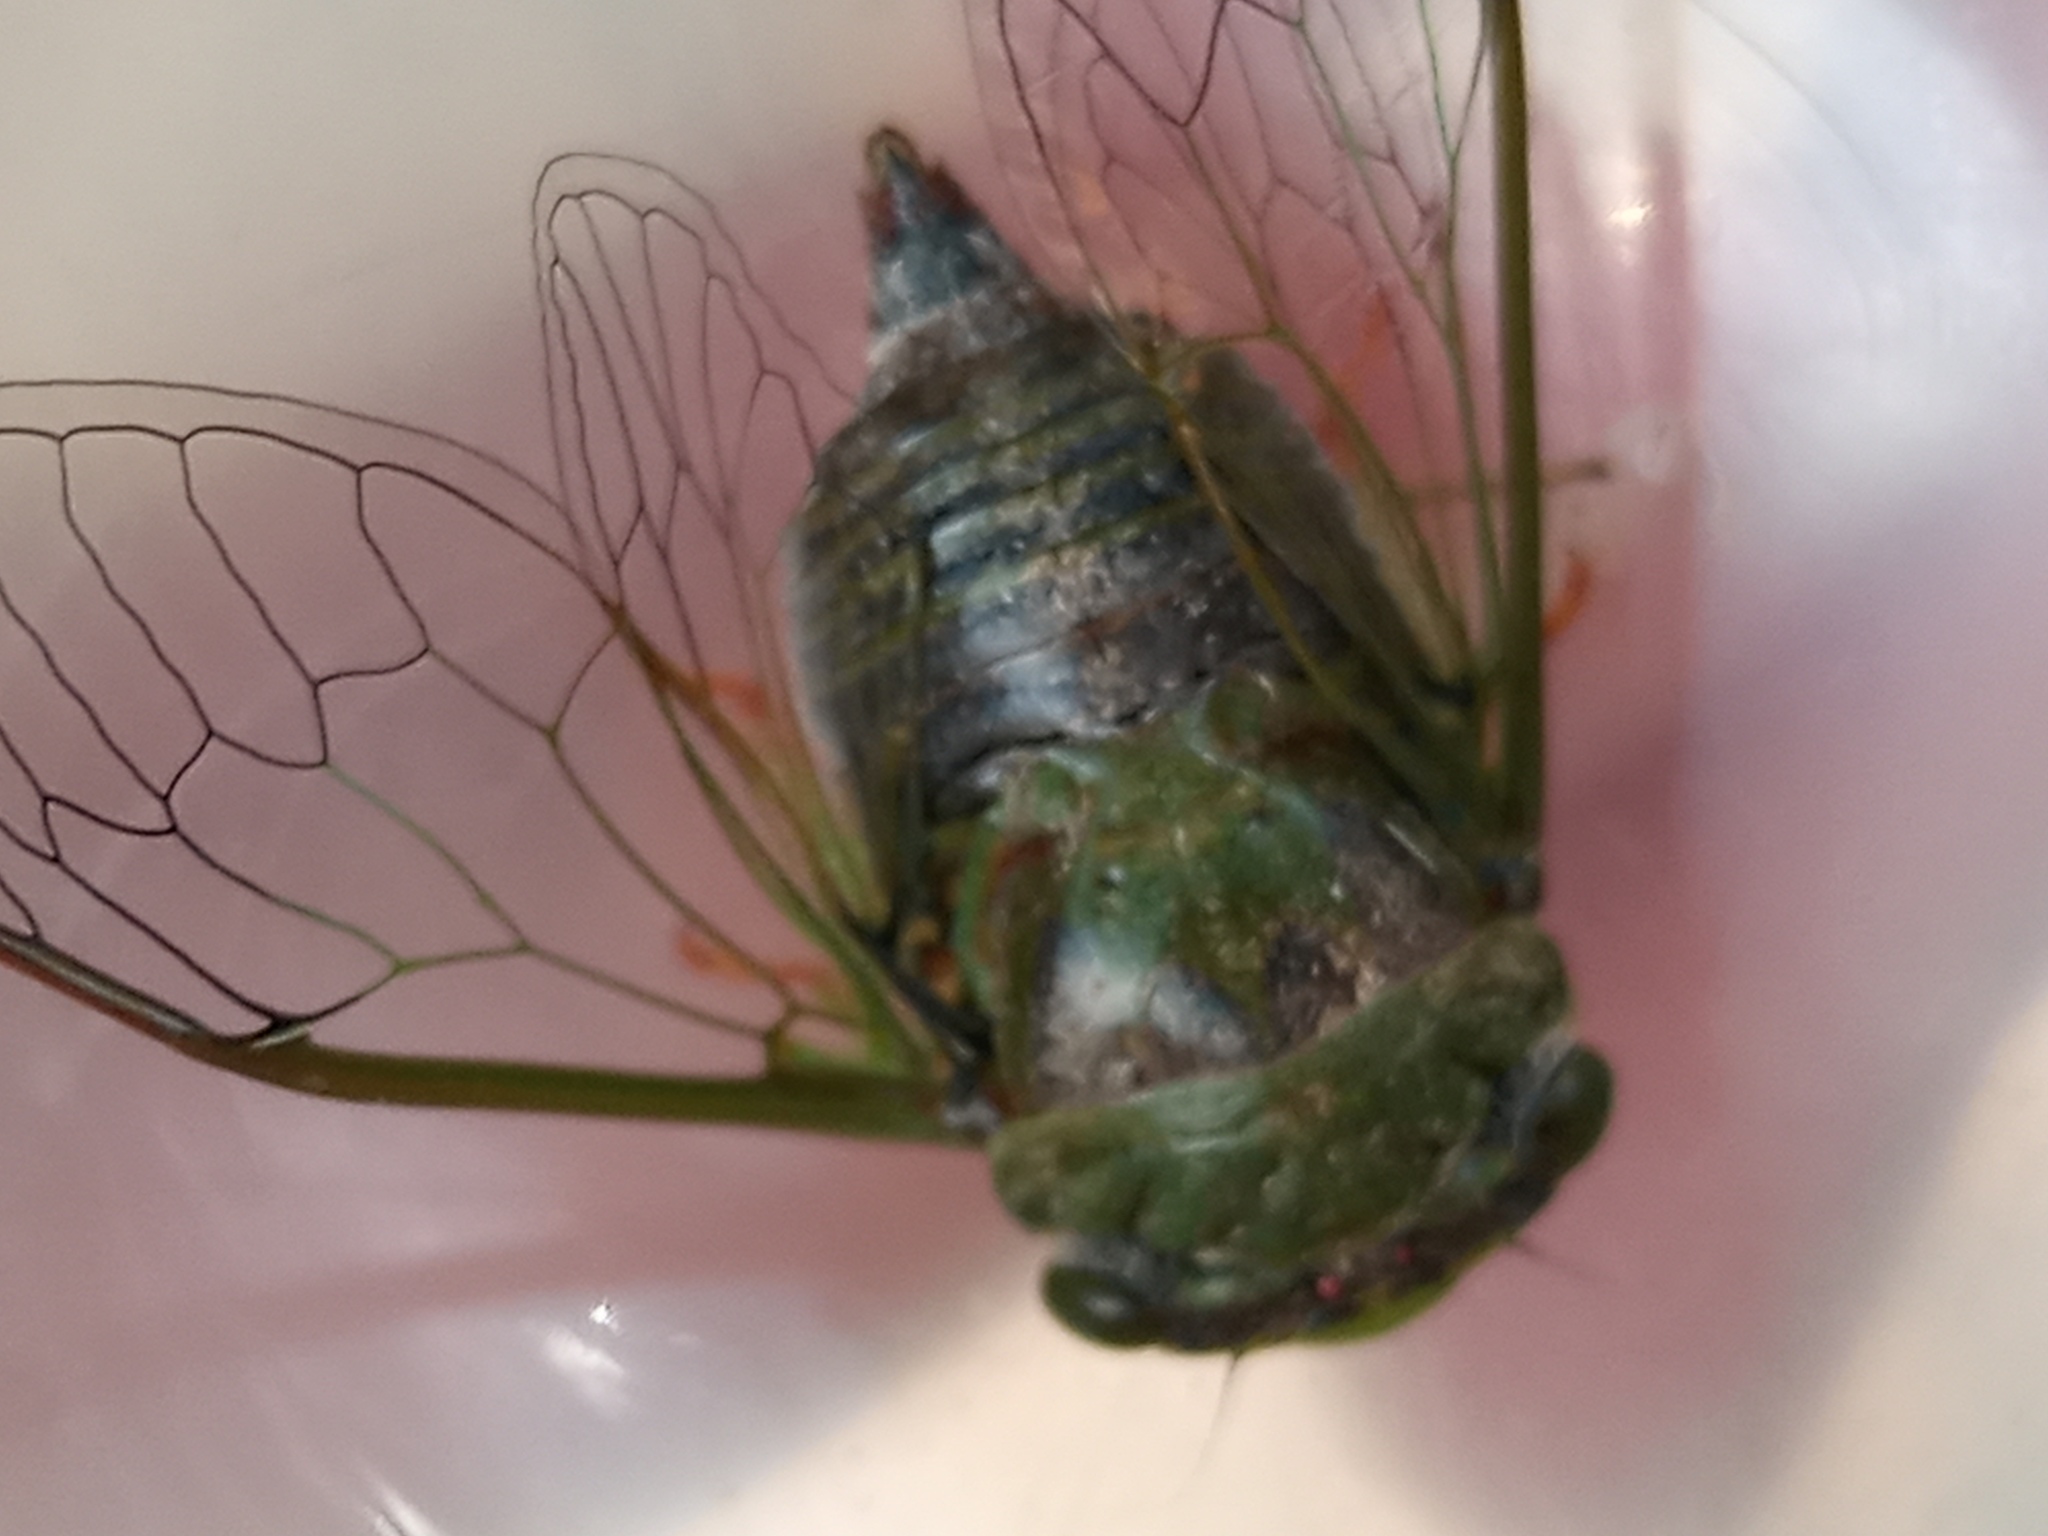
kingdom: Animalia
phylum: Arthropoda
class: Insecta
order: Hemiptera
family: Cicadidae
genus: Acanthoventris
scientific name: Acanthoventris drewseni
